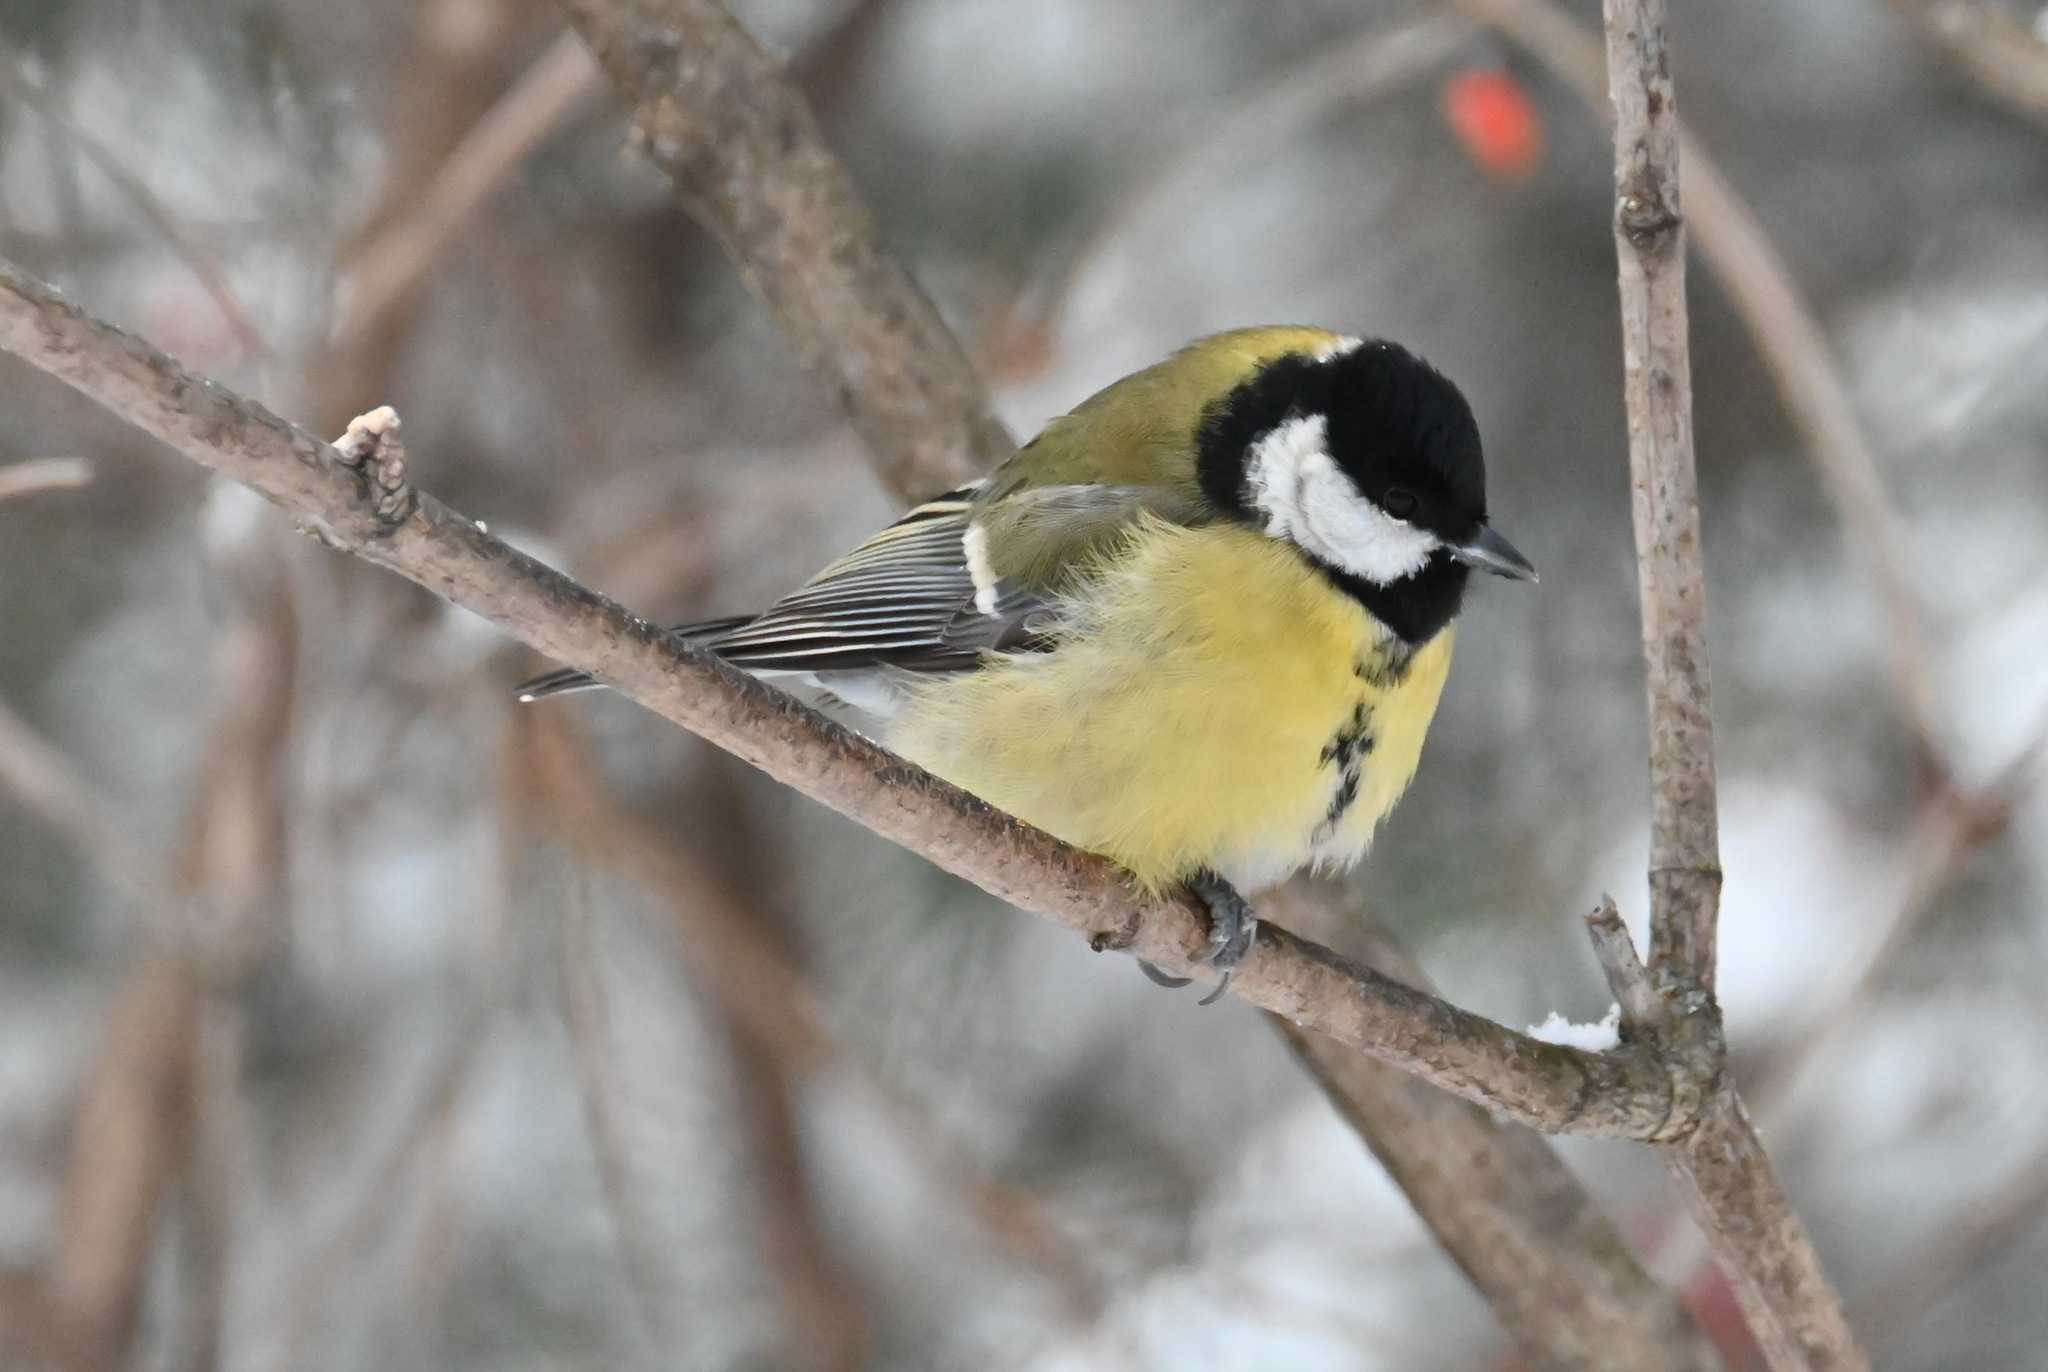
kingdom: Animalia
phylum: Chordata
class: Aves
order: Passeriformes
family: Paridae
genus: Parus
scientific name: Parus major
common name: Great tit
